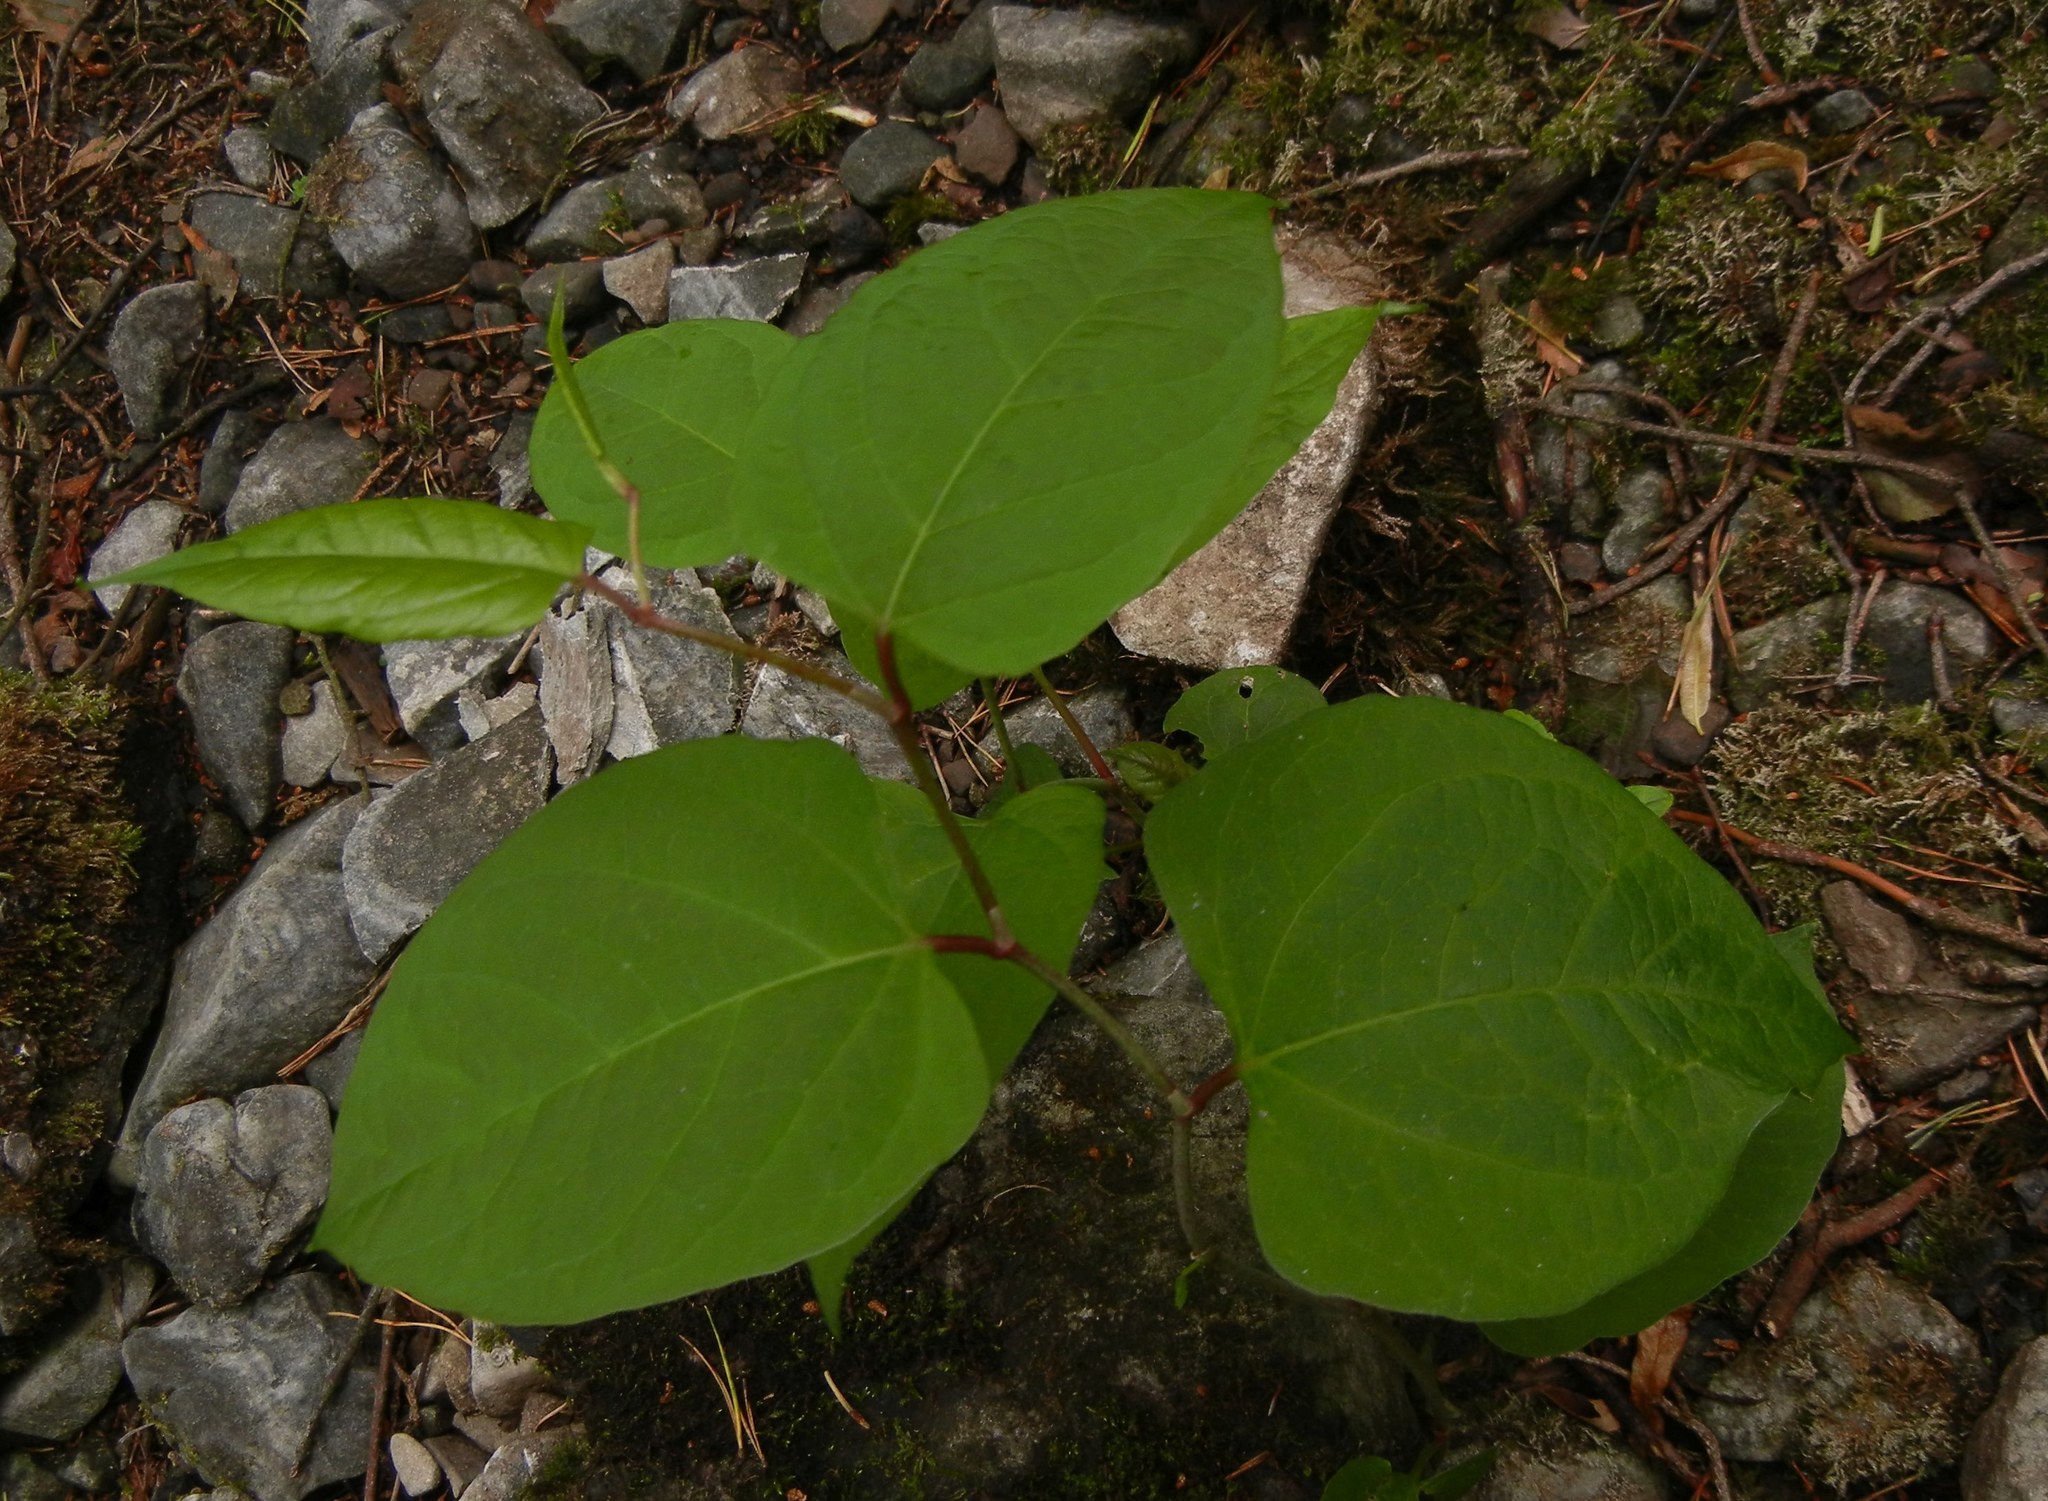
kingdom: Plantae
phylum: Tracheophyta
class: Magnoliopsida
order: Caryophyllales
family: Polygonaceae
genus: Reynoutria
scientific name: Reynoutria japonica
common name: Japanese knotweed
